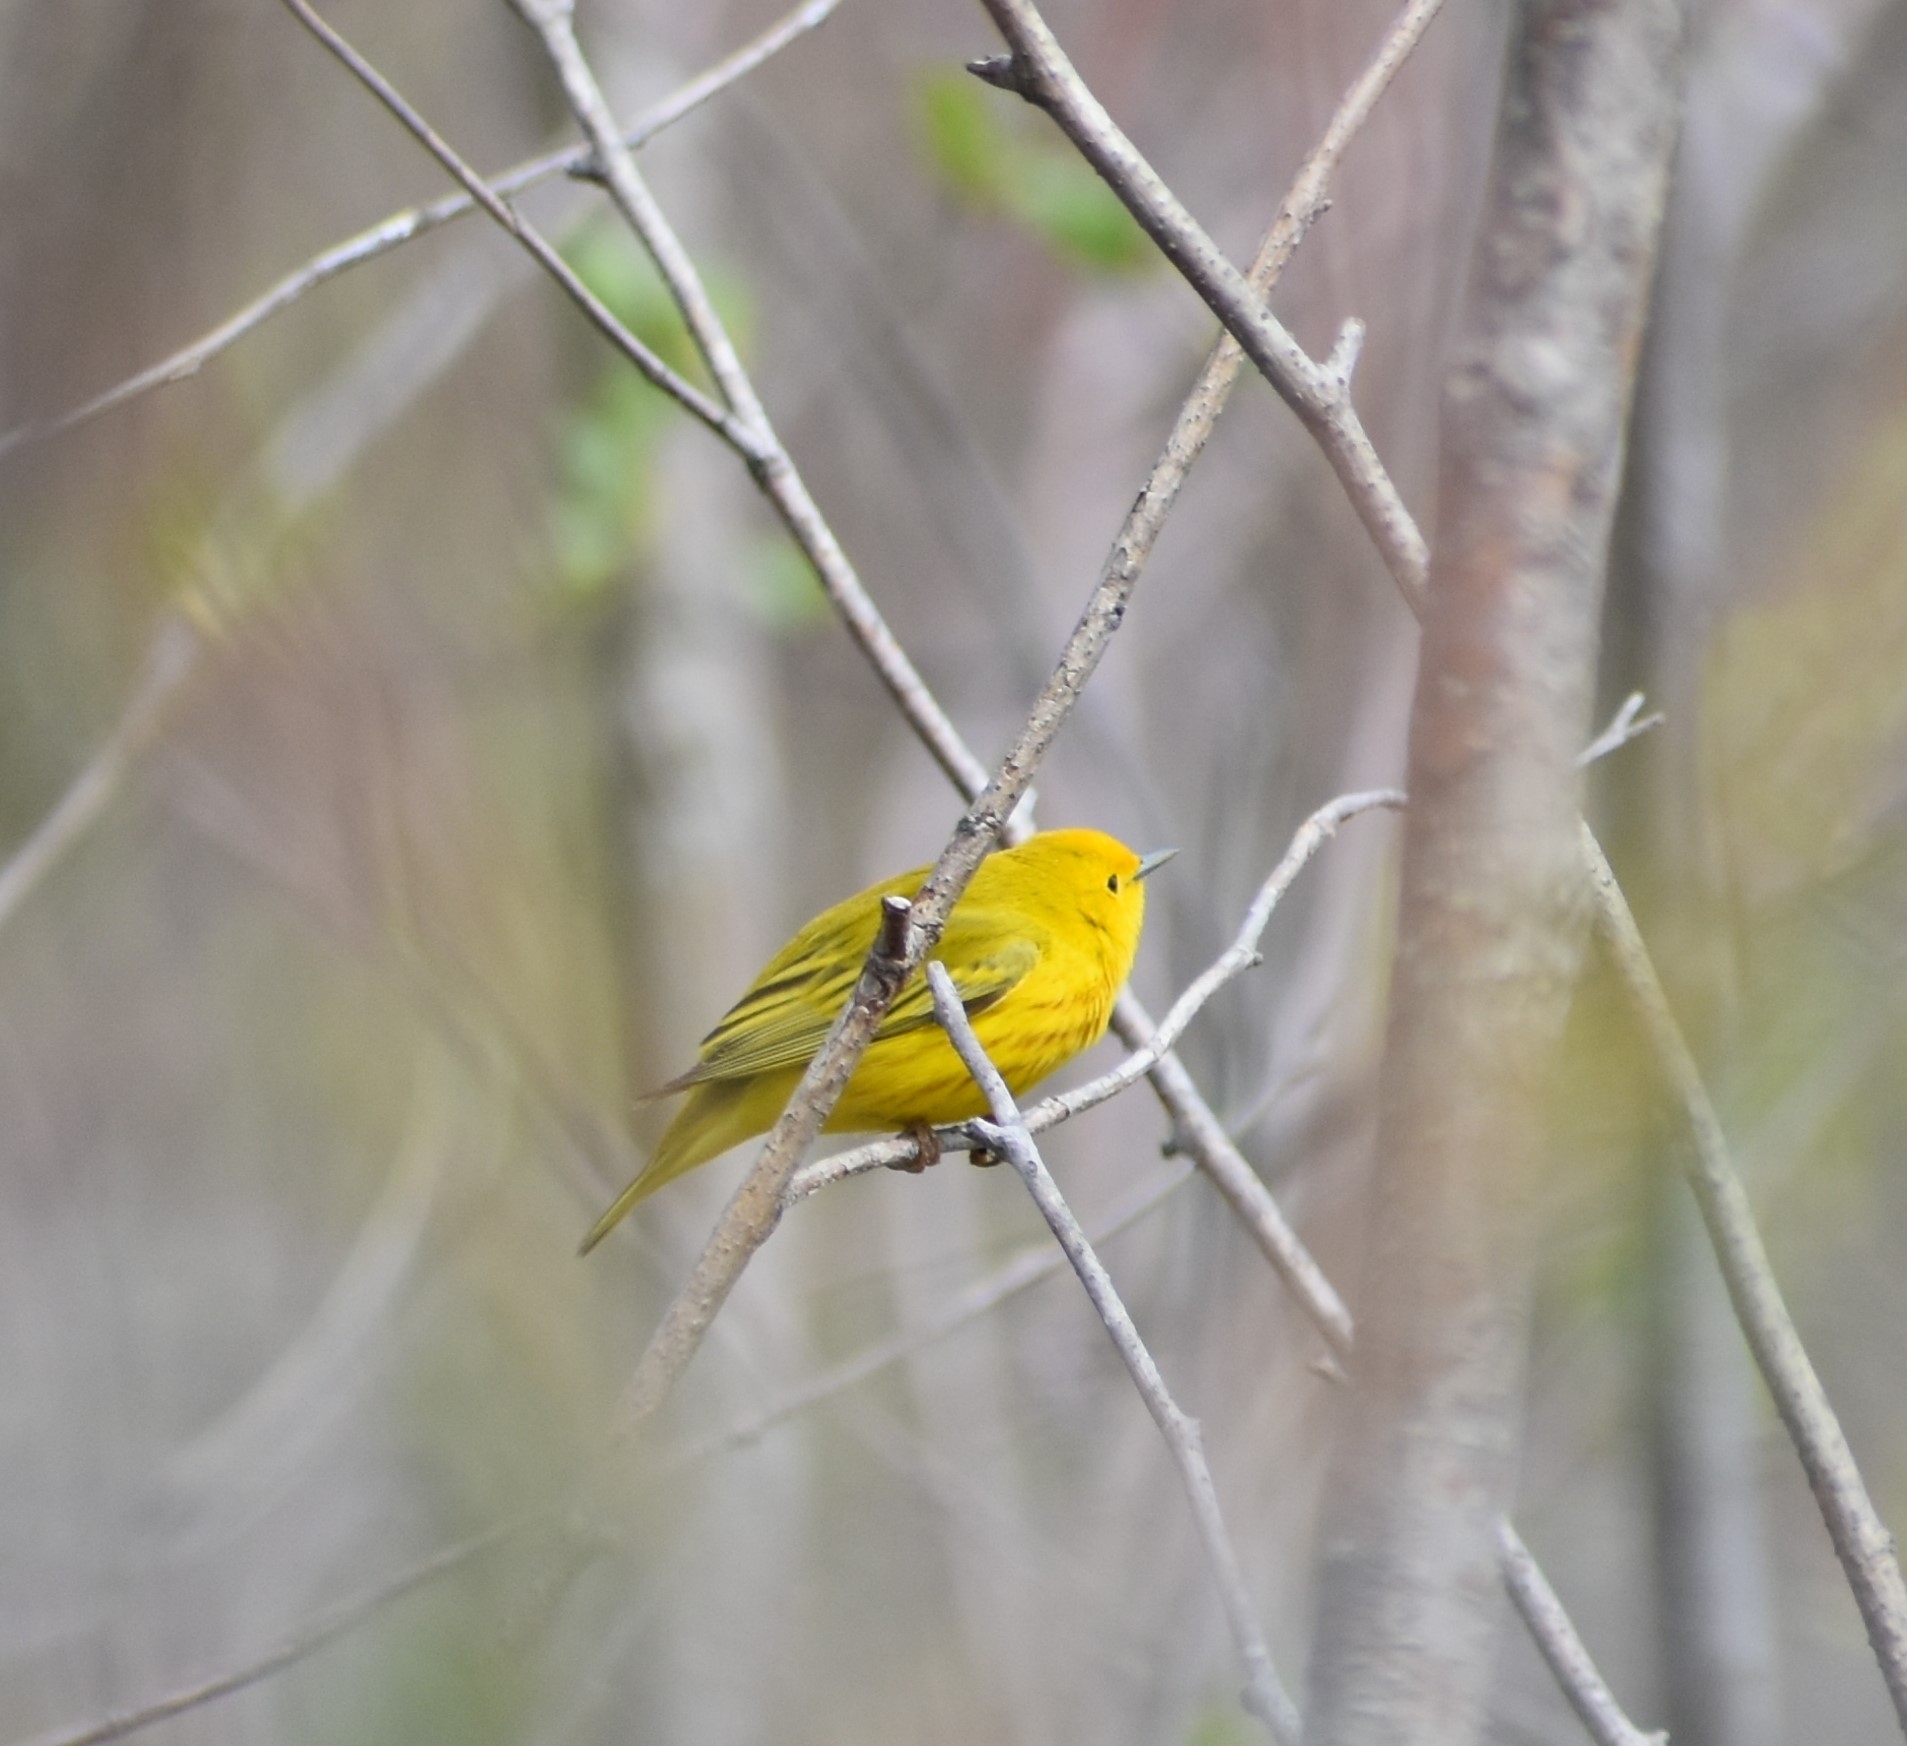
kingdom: Animalia
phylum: Chordata
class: Aves
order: Passeriformes
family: Parulidae
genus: Setophaga
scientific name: Setophaga petechia
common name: Yellow warbler
